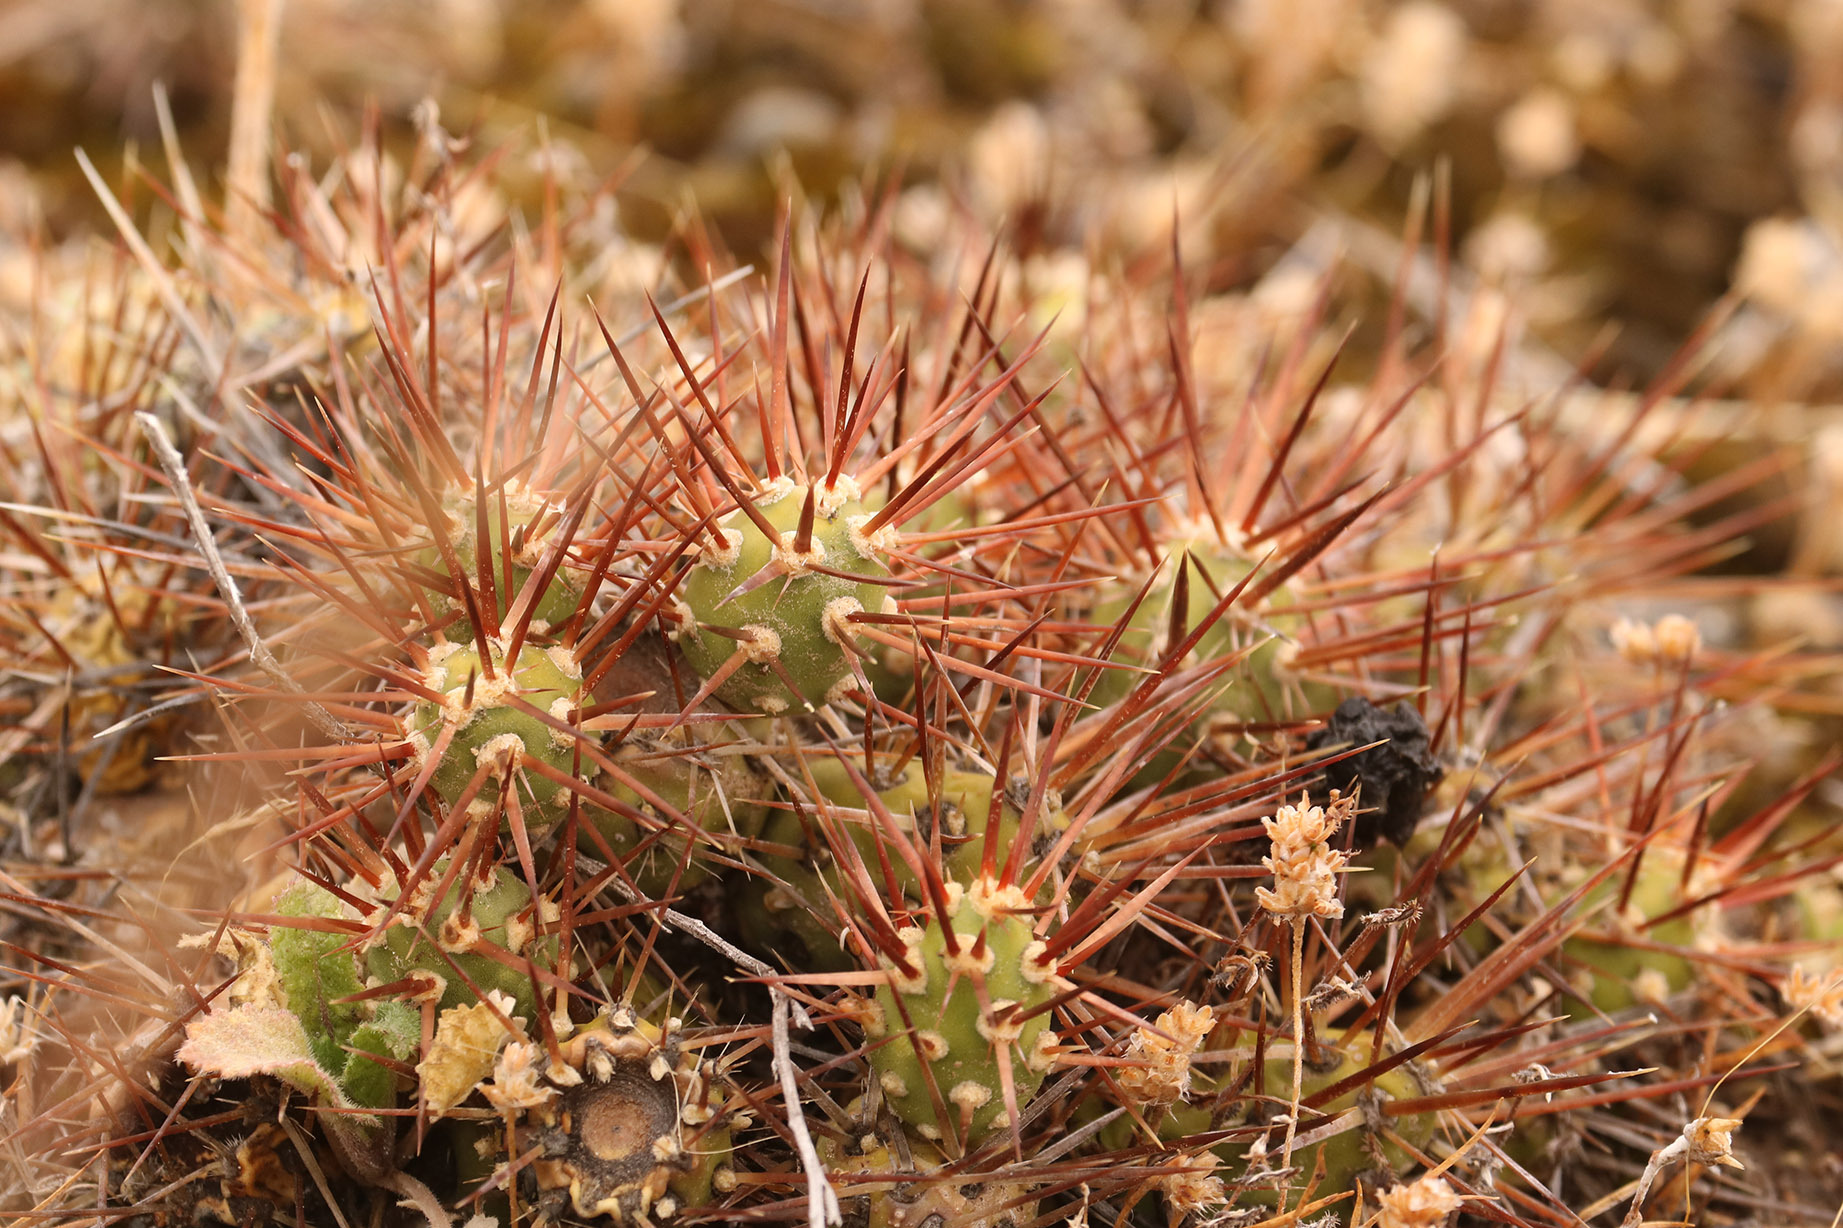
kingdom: Plantae
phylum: Tracheophyta
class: Magnoliopsida
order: Caryophyllales
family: Cactaceae
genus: Maihueniopsis
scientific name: Maihueniopsis darwinii
